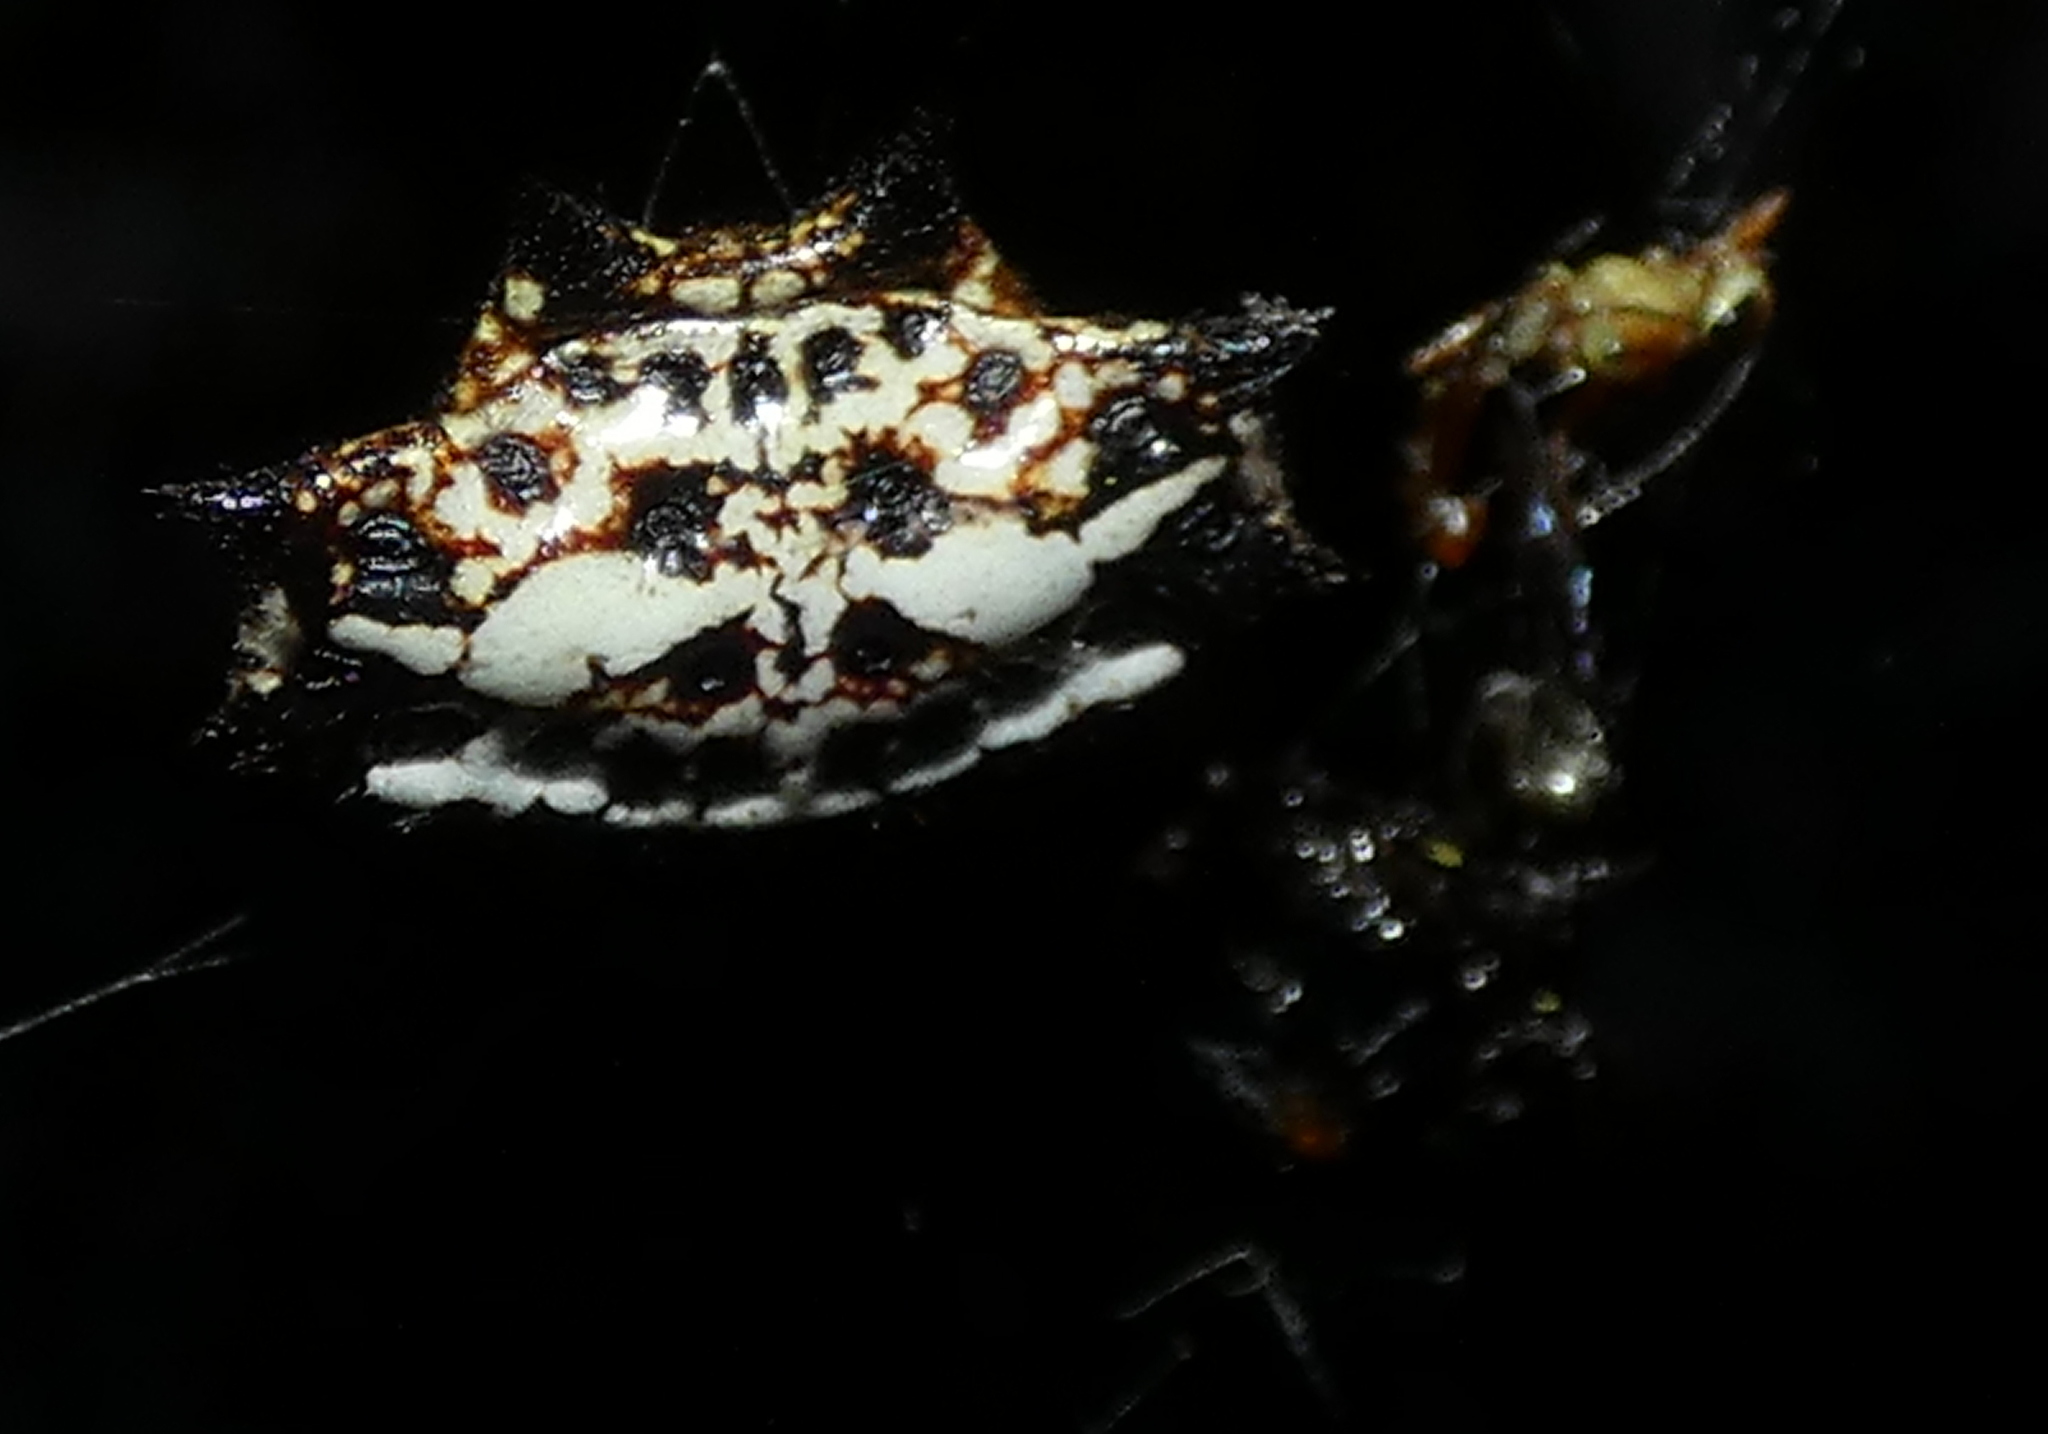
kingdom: Animalia
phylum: Arthropoda
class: Arachnida
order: Araneae
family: Araneidae
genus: Gasteracantha
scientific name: Gasteracantha cancriformis
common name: Orb weavers
